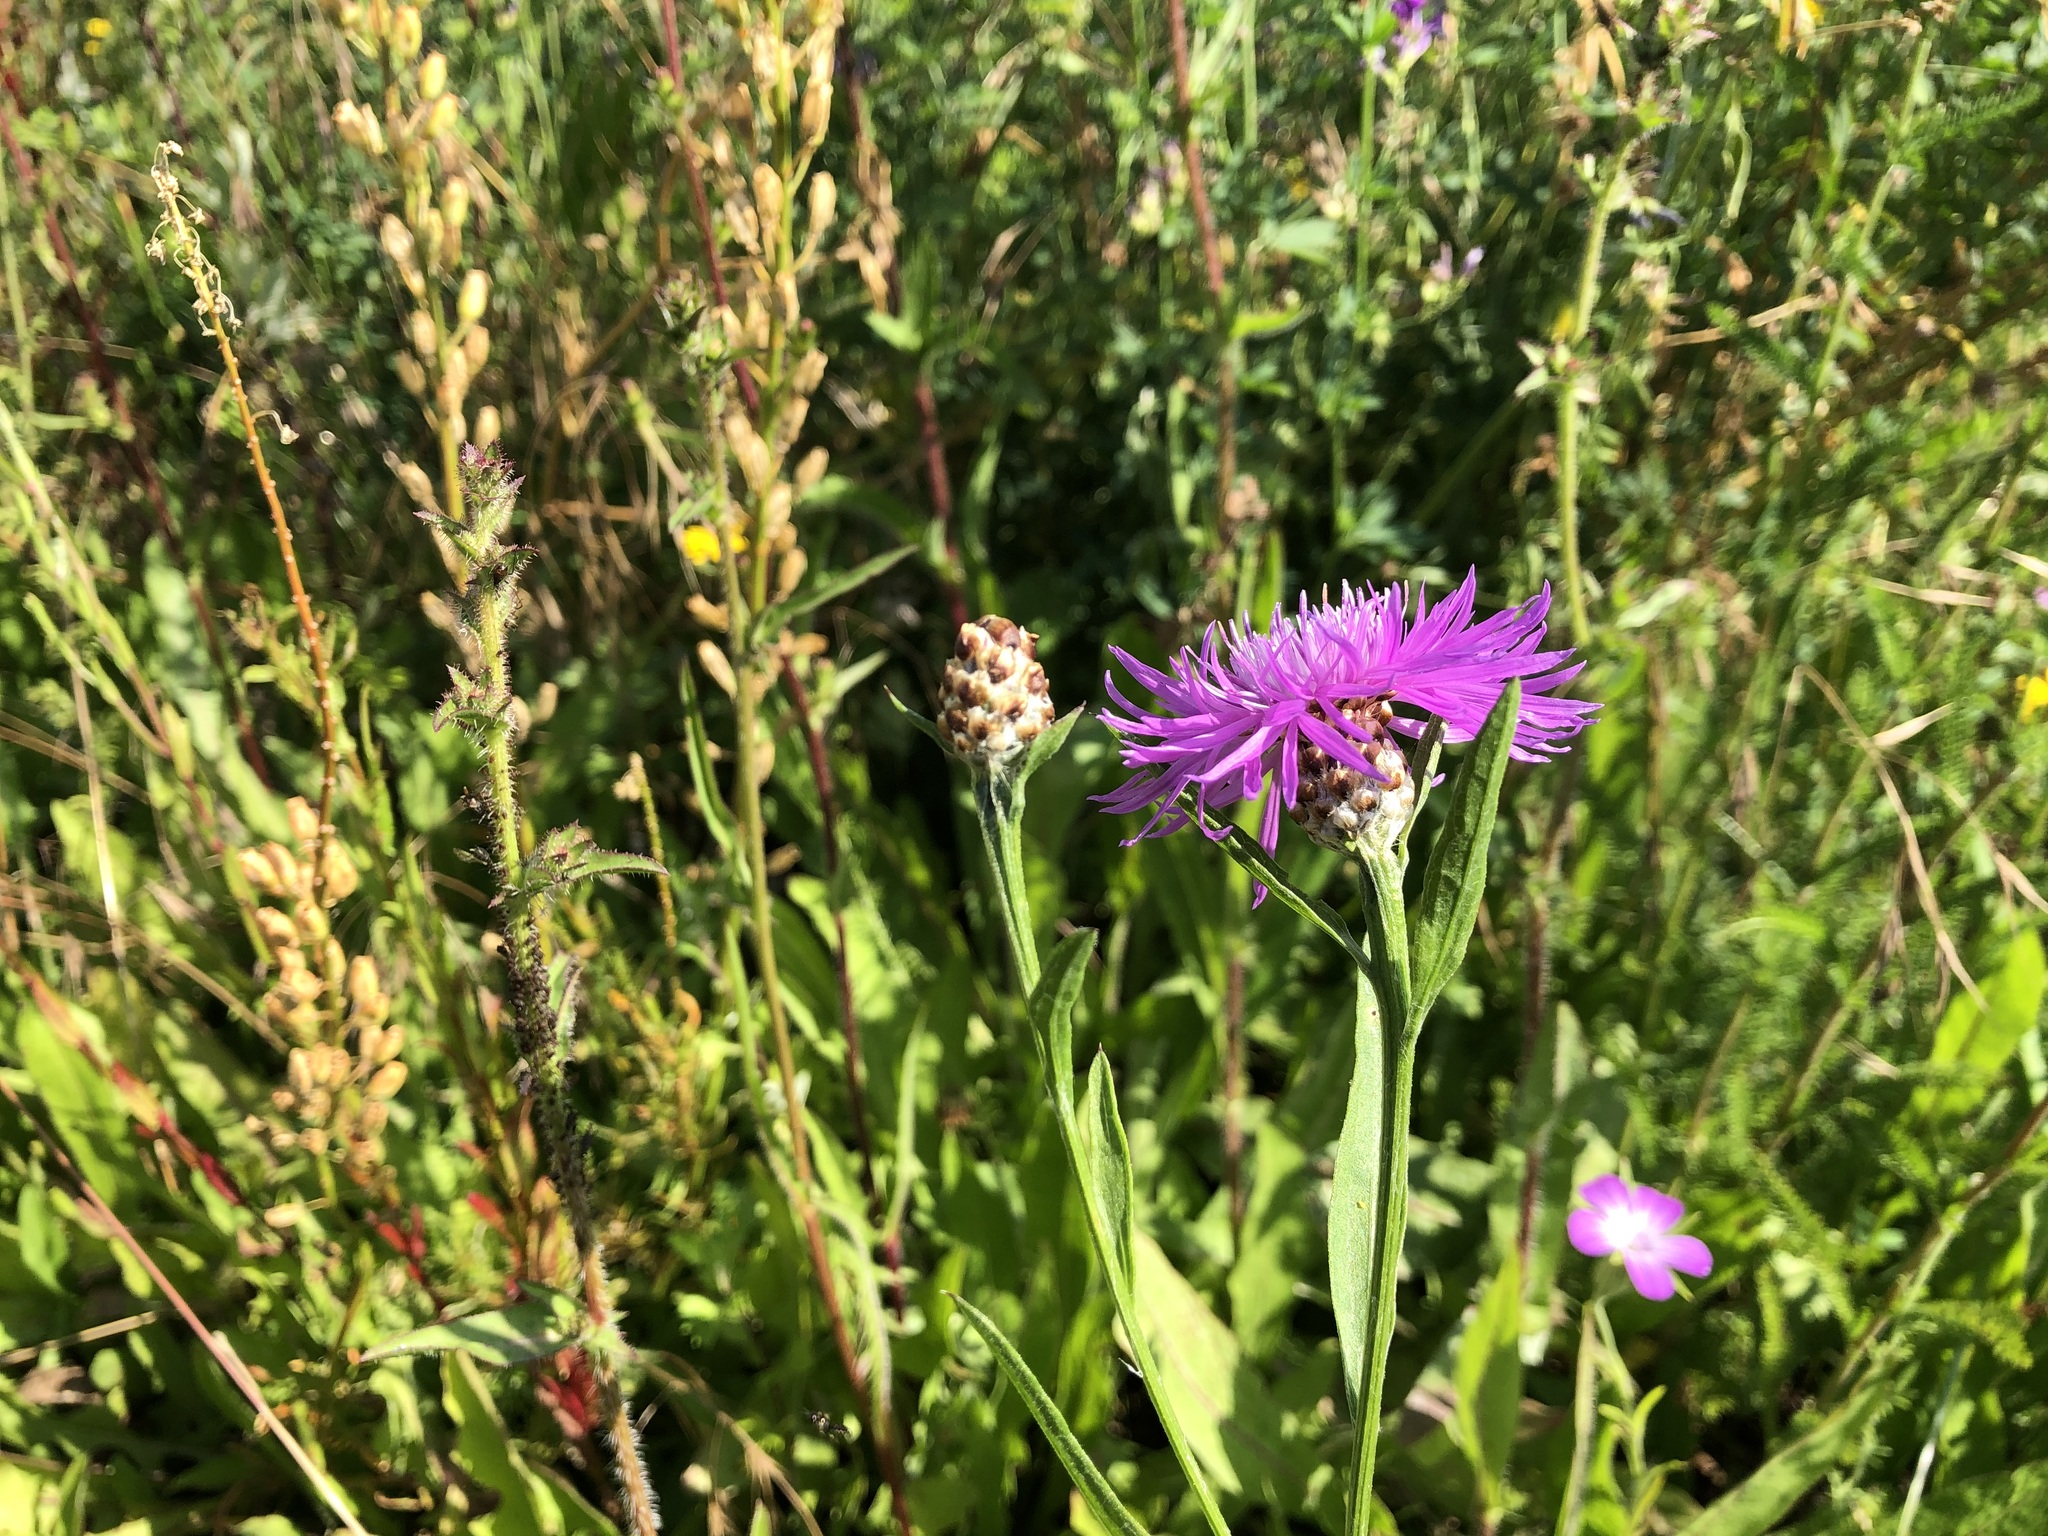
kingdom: Plantae
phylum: Tracheophyta
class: Magnoliopsida
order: Asterales
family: Asteraceae
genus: Centaurea
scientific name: Centaurea jacea
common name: Brown knapweed
